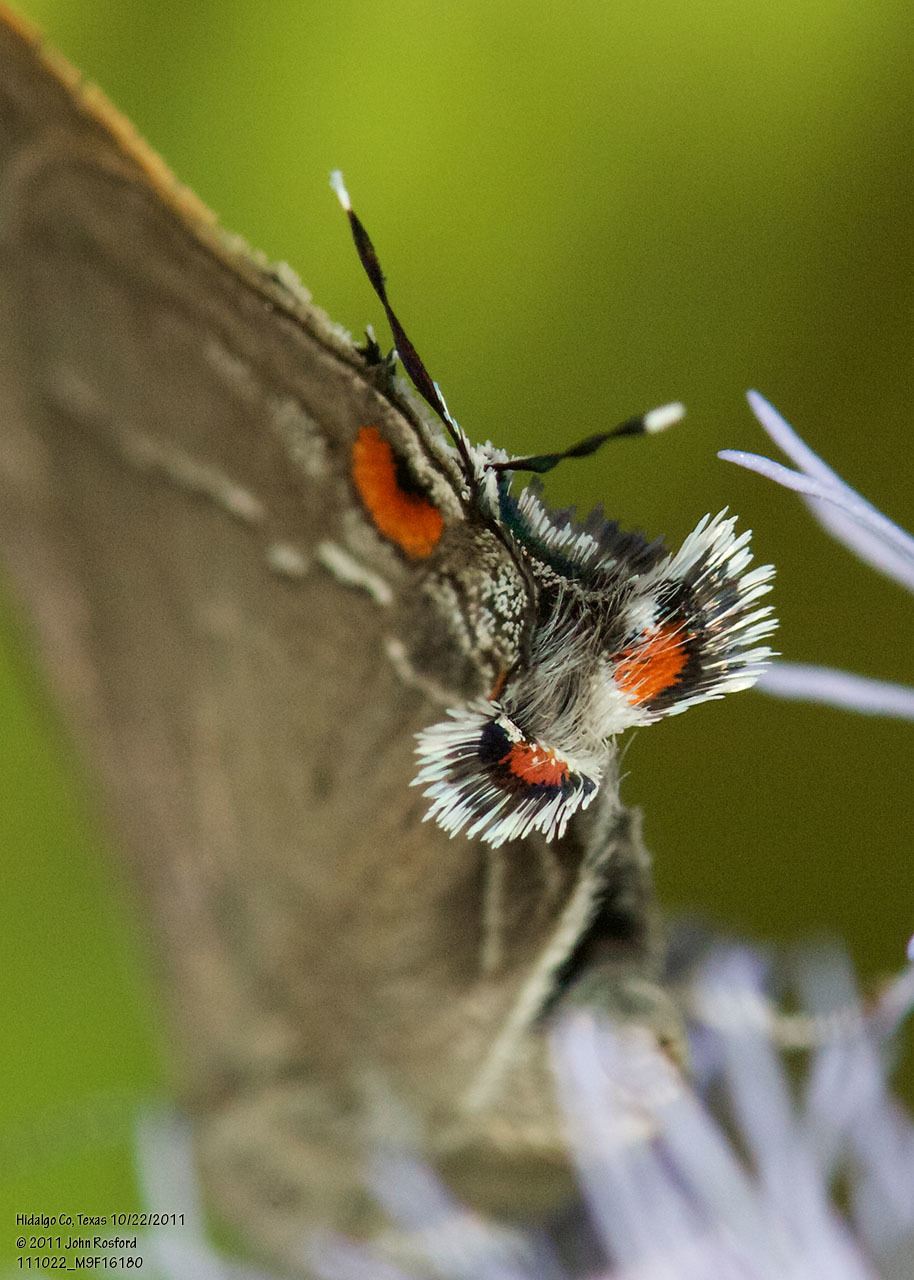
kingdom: Animalia
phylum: Arthropoda
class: Insecta
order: Lepidoptera
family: Lycaenidae
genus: Thecla
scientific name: Thecla marius
